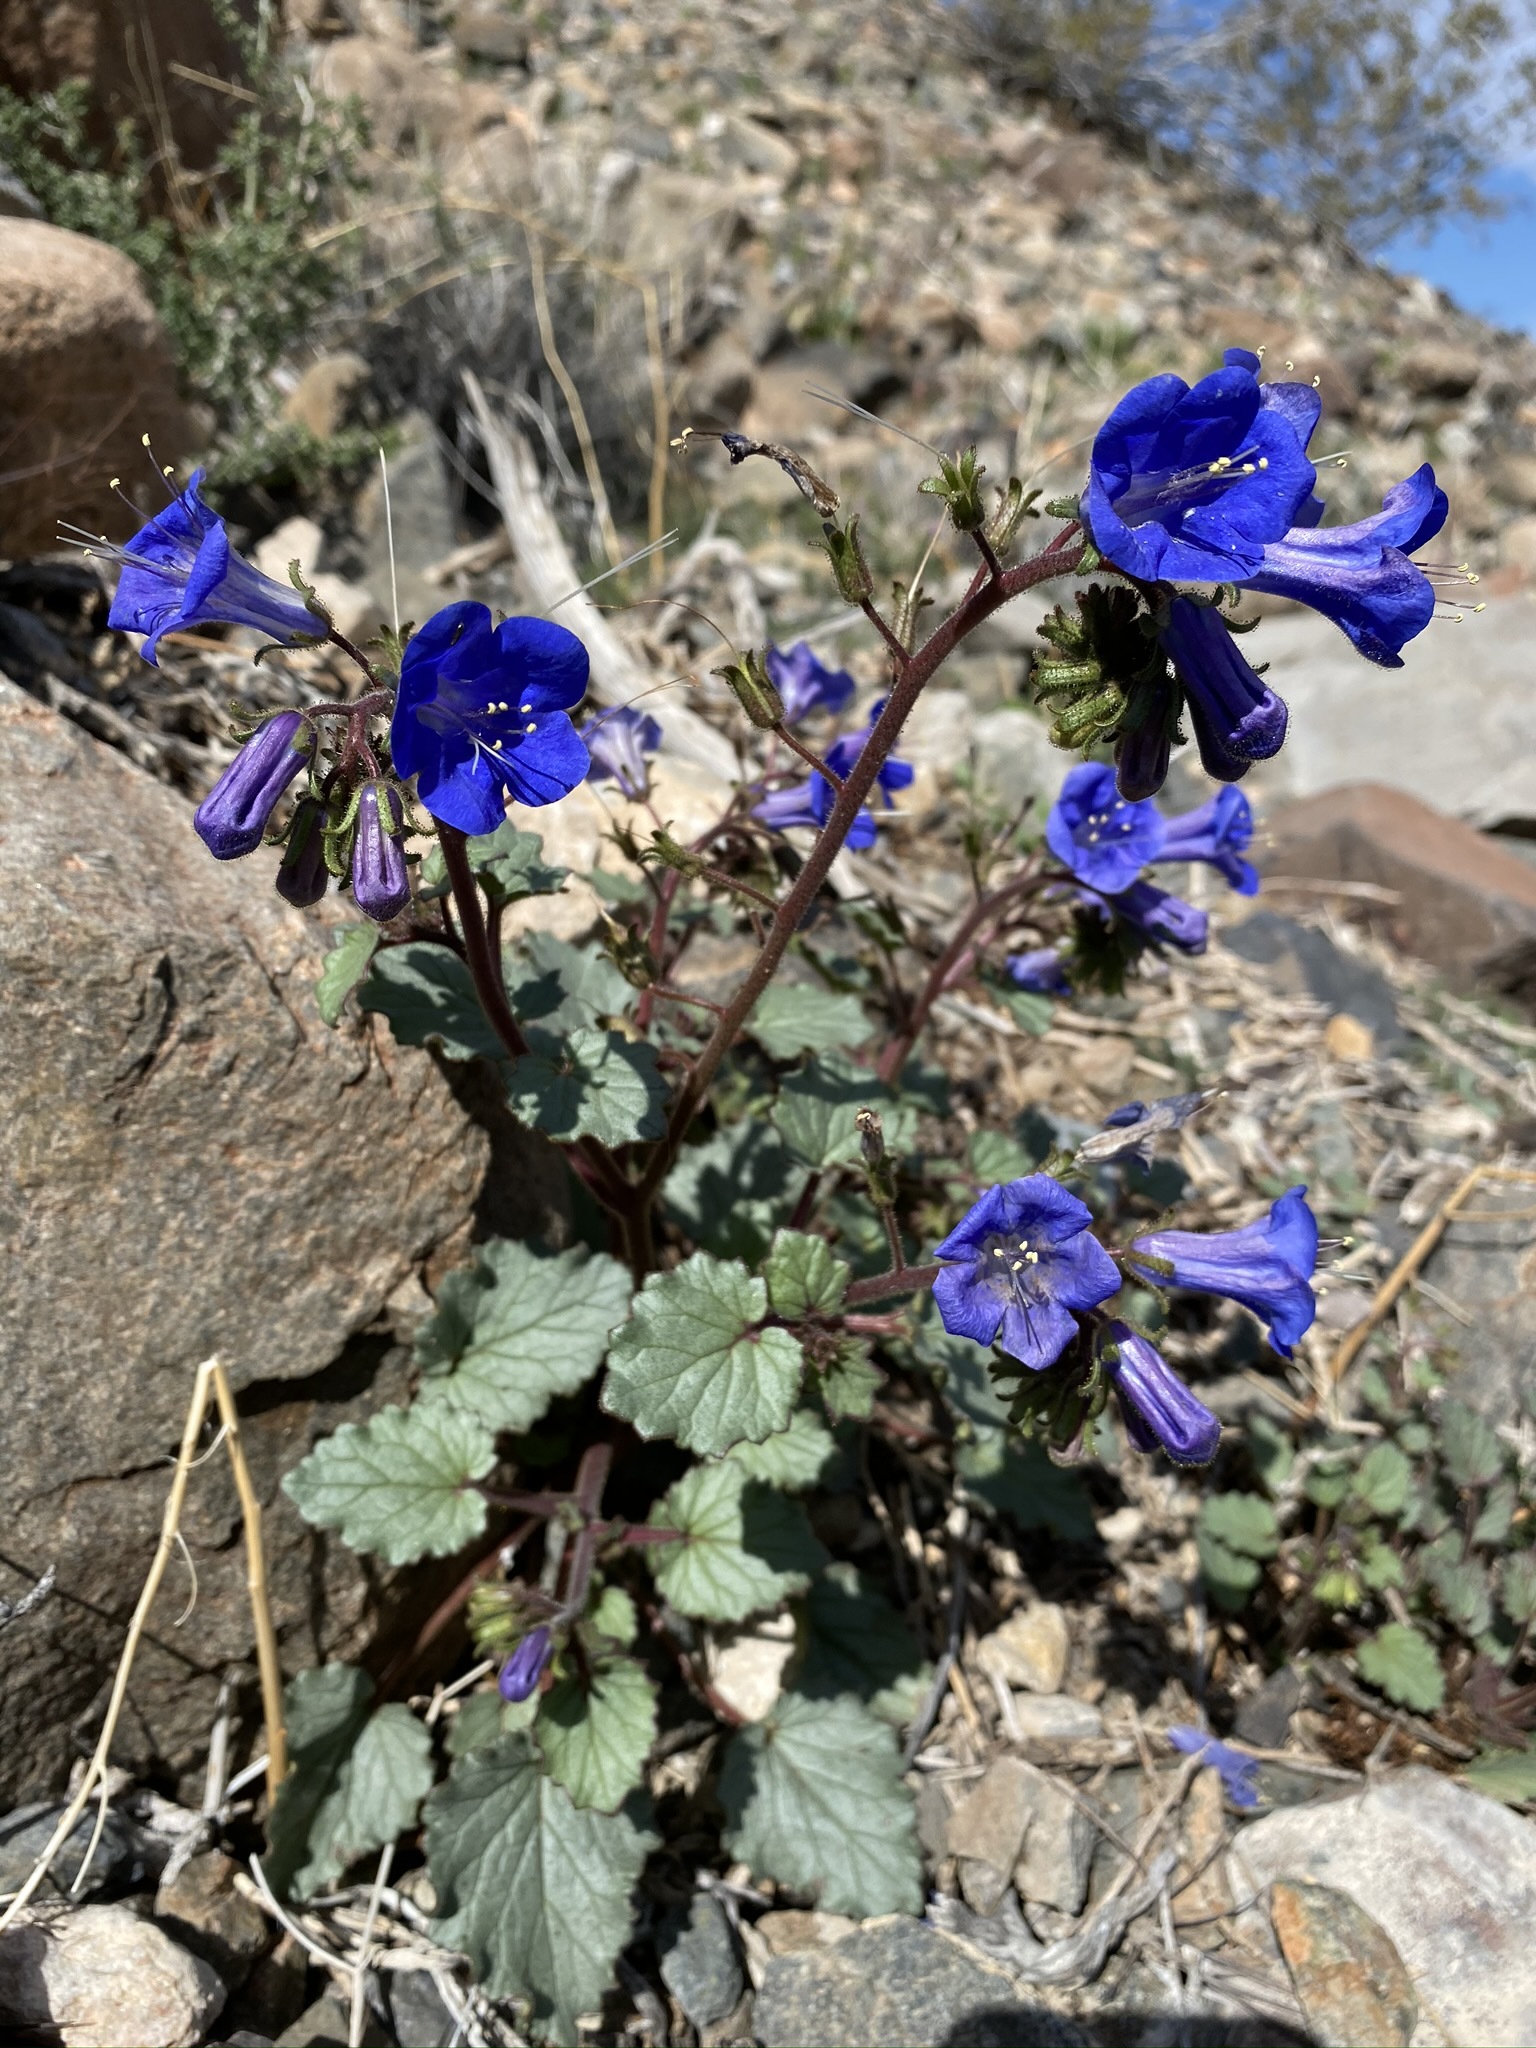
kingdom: Plantae
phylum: Tracheophyta
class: Magnoliopsida
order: Boraginales
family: Hydrophyllaceae
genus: Phacelia
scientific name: Phacelia campanularia
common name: California bluebell
